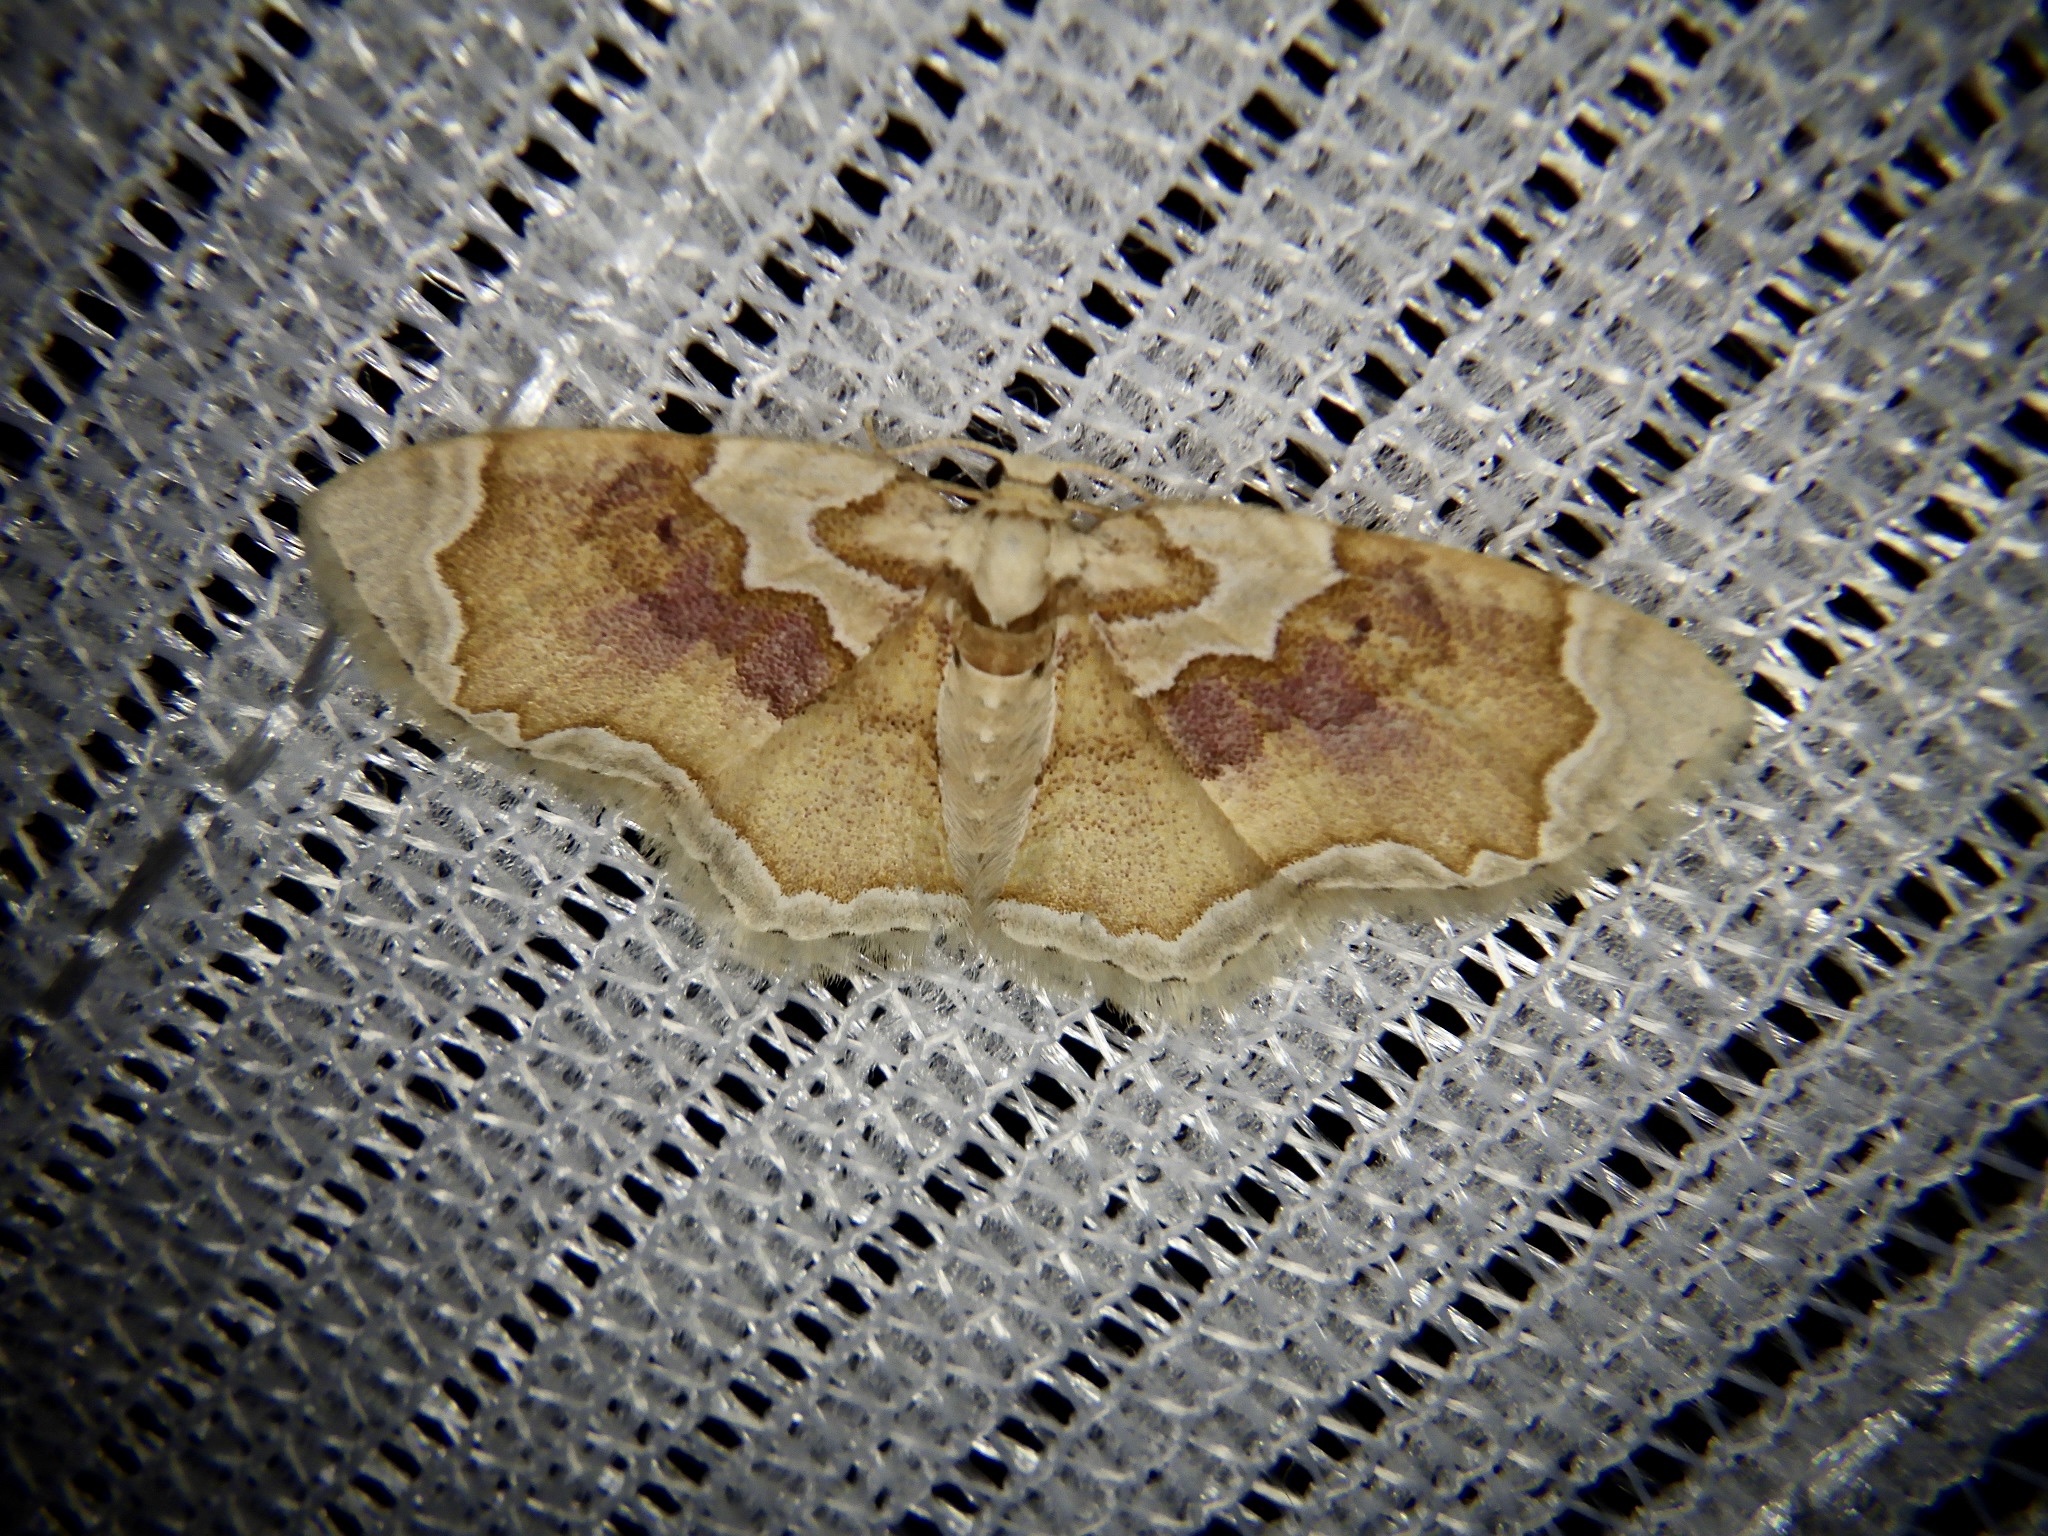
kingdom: Animalia
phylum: Arthropoda
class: Insecta
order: Lepidoptera
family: Geometridae
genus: Palpoctenidia
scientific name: Palpoctenidia phoenicosoma
